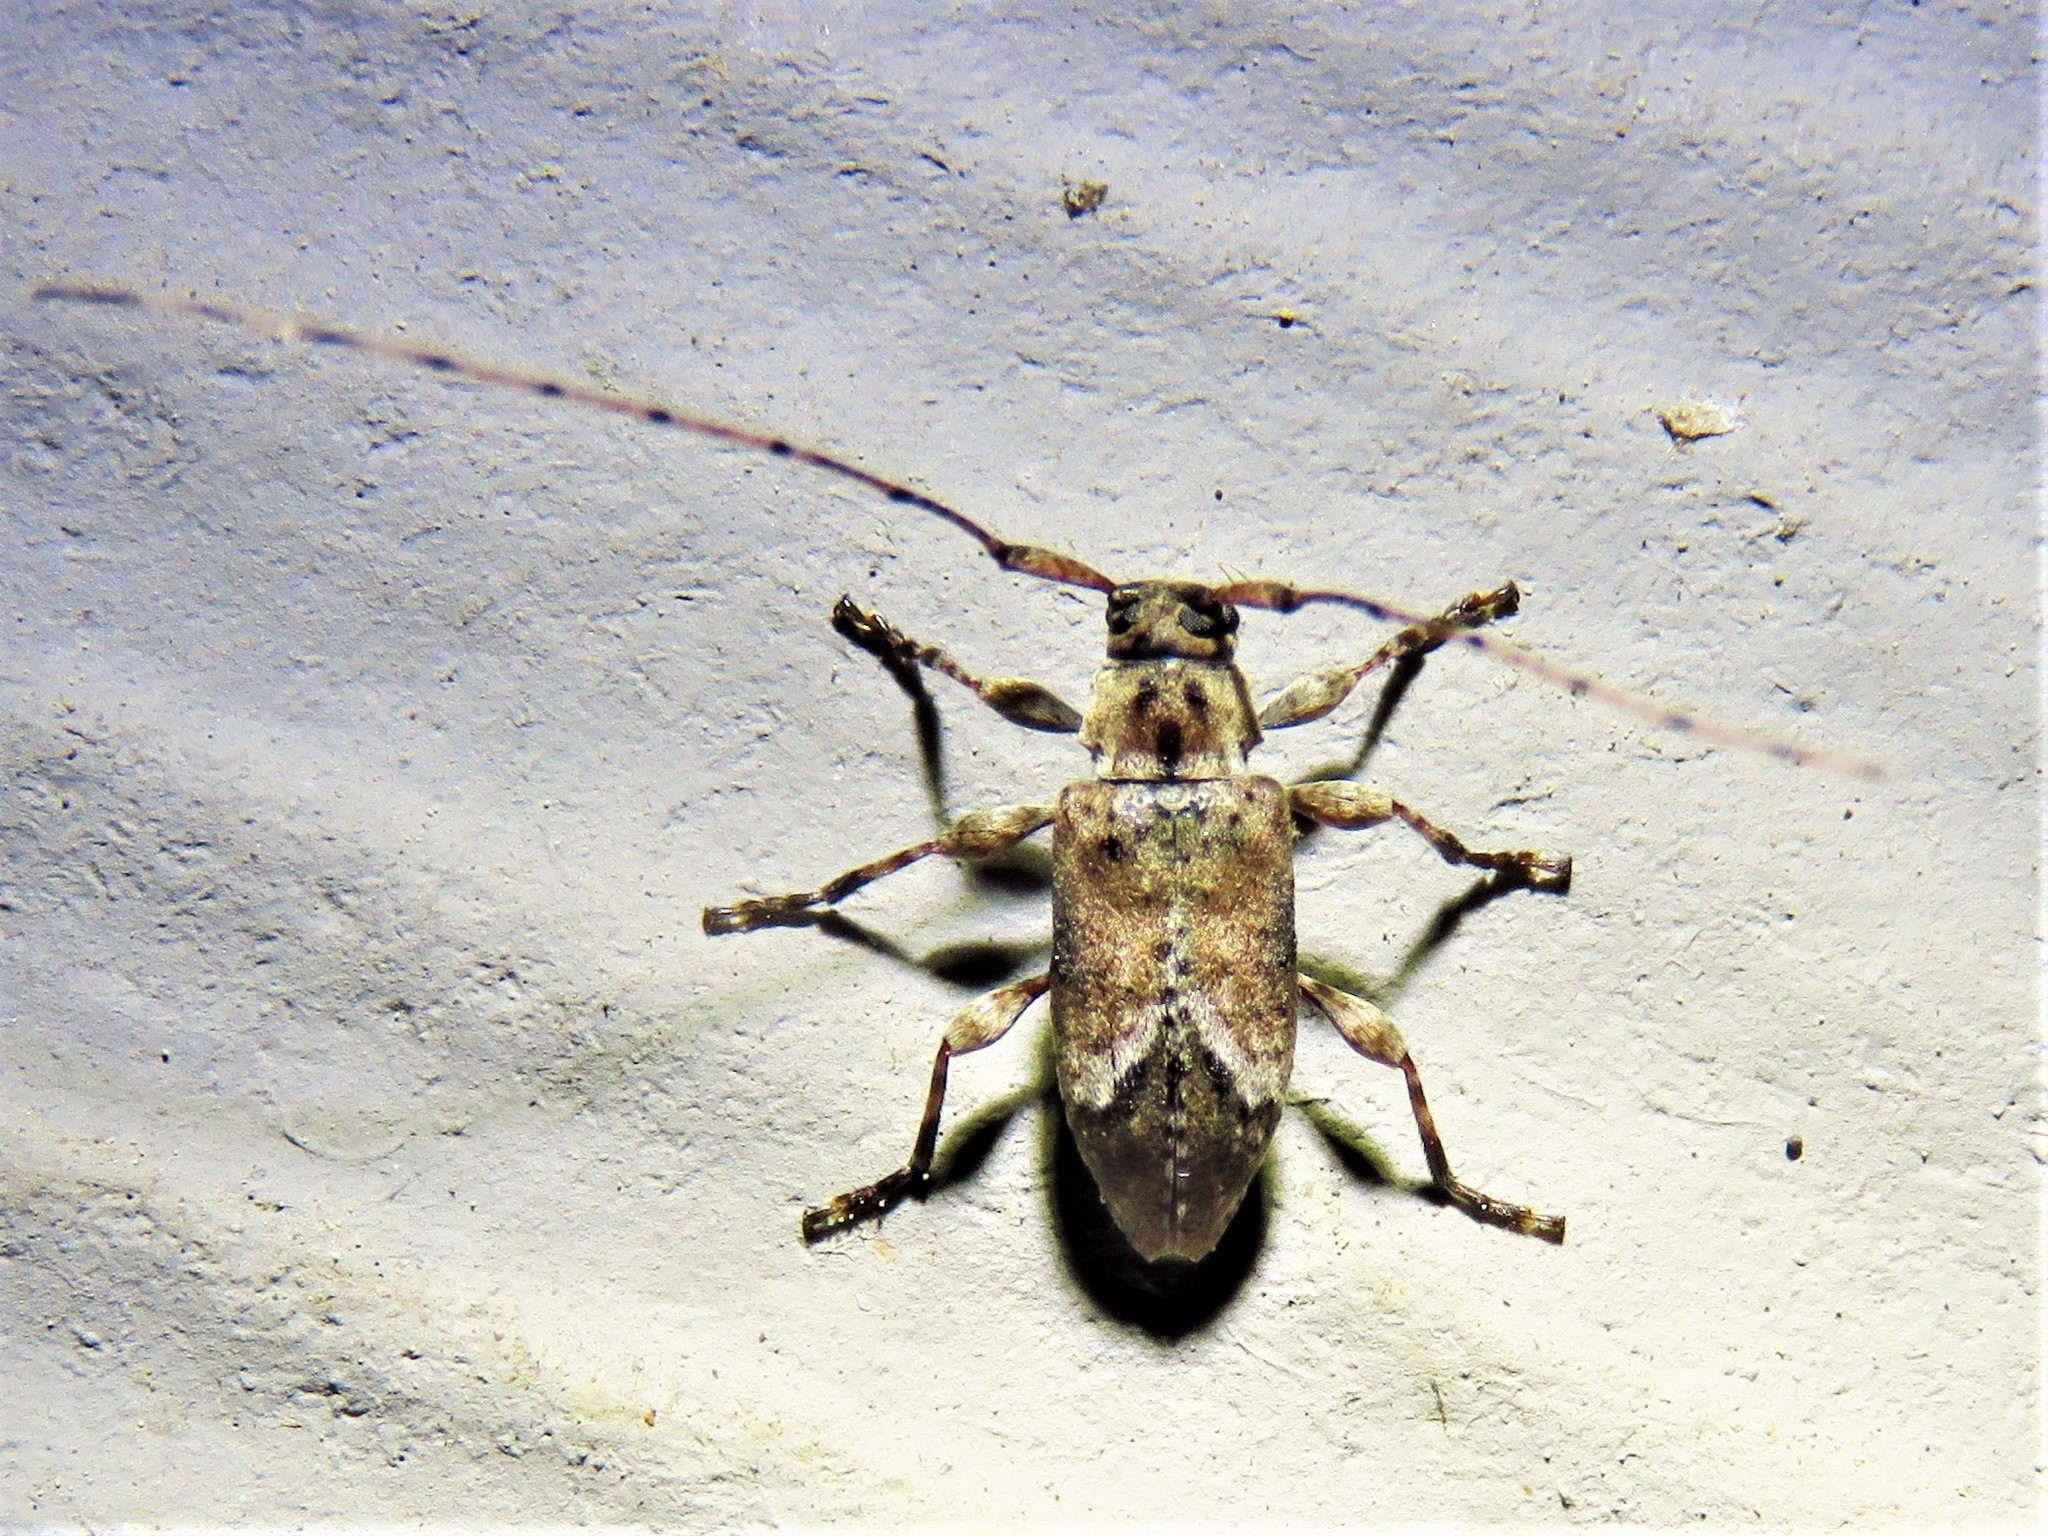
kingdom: Animalia
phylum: Arthropoda
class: Insecta
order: Coleoptera
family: Cerambycidae
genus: Sternidius
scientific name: Sternidius alpha
